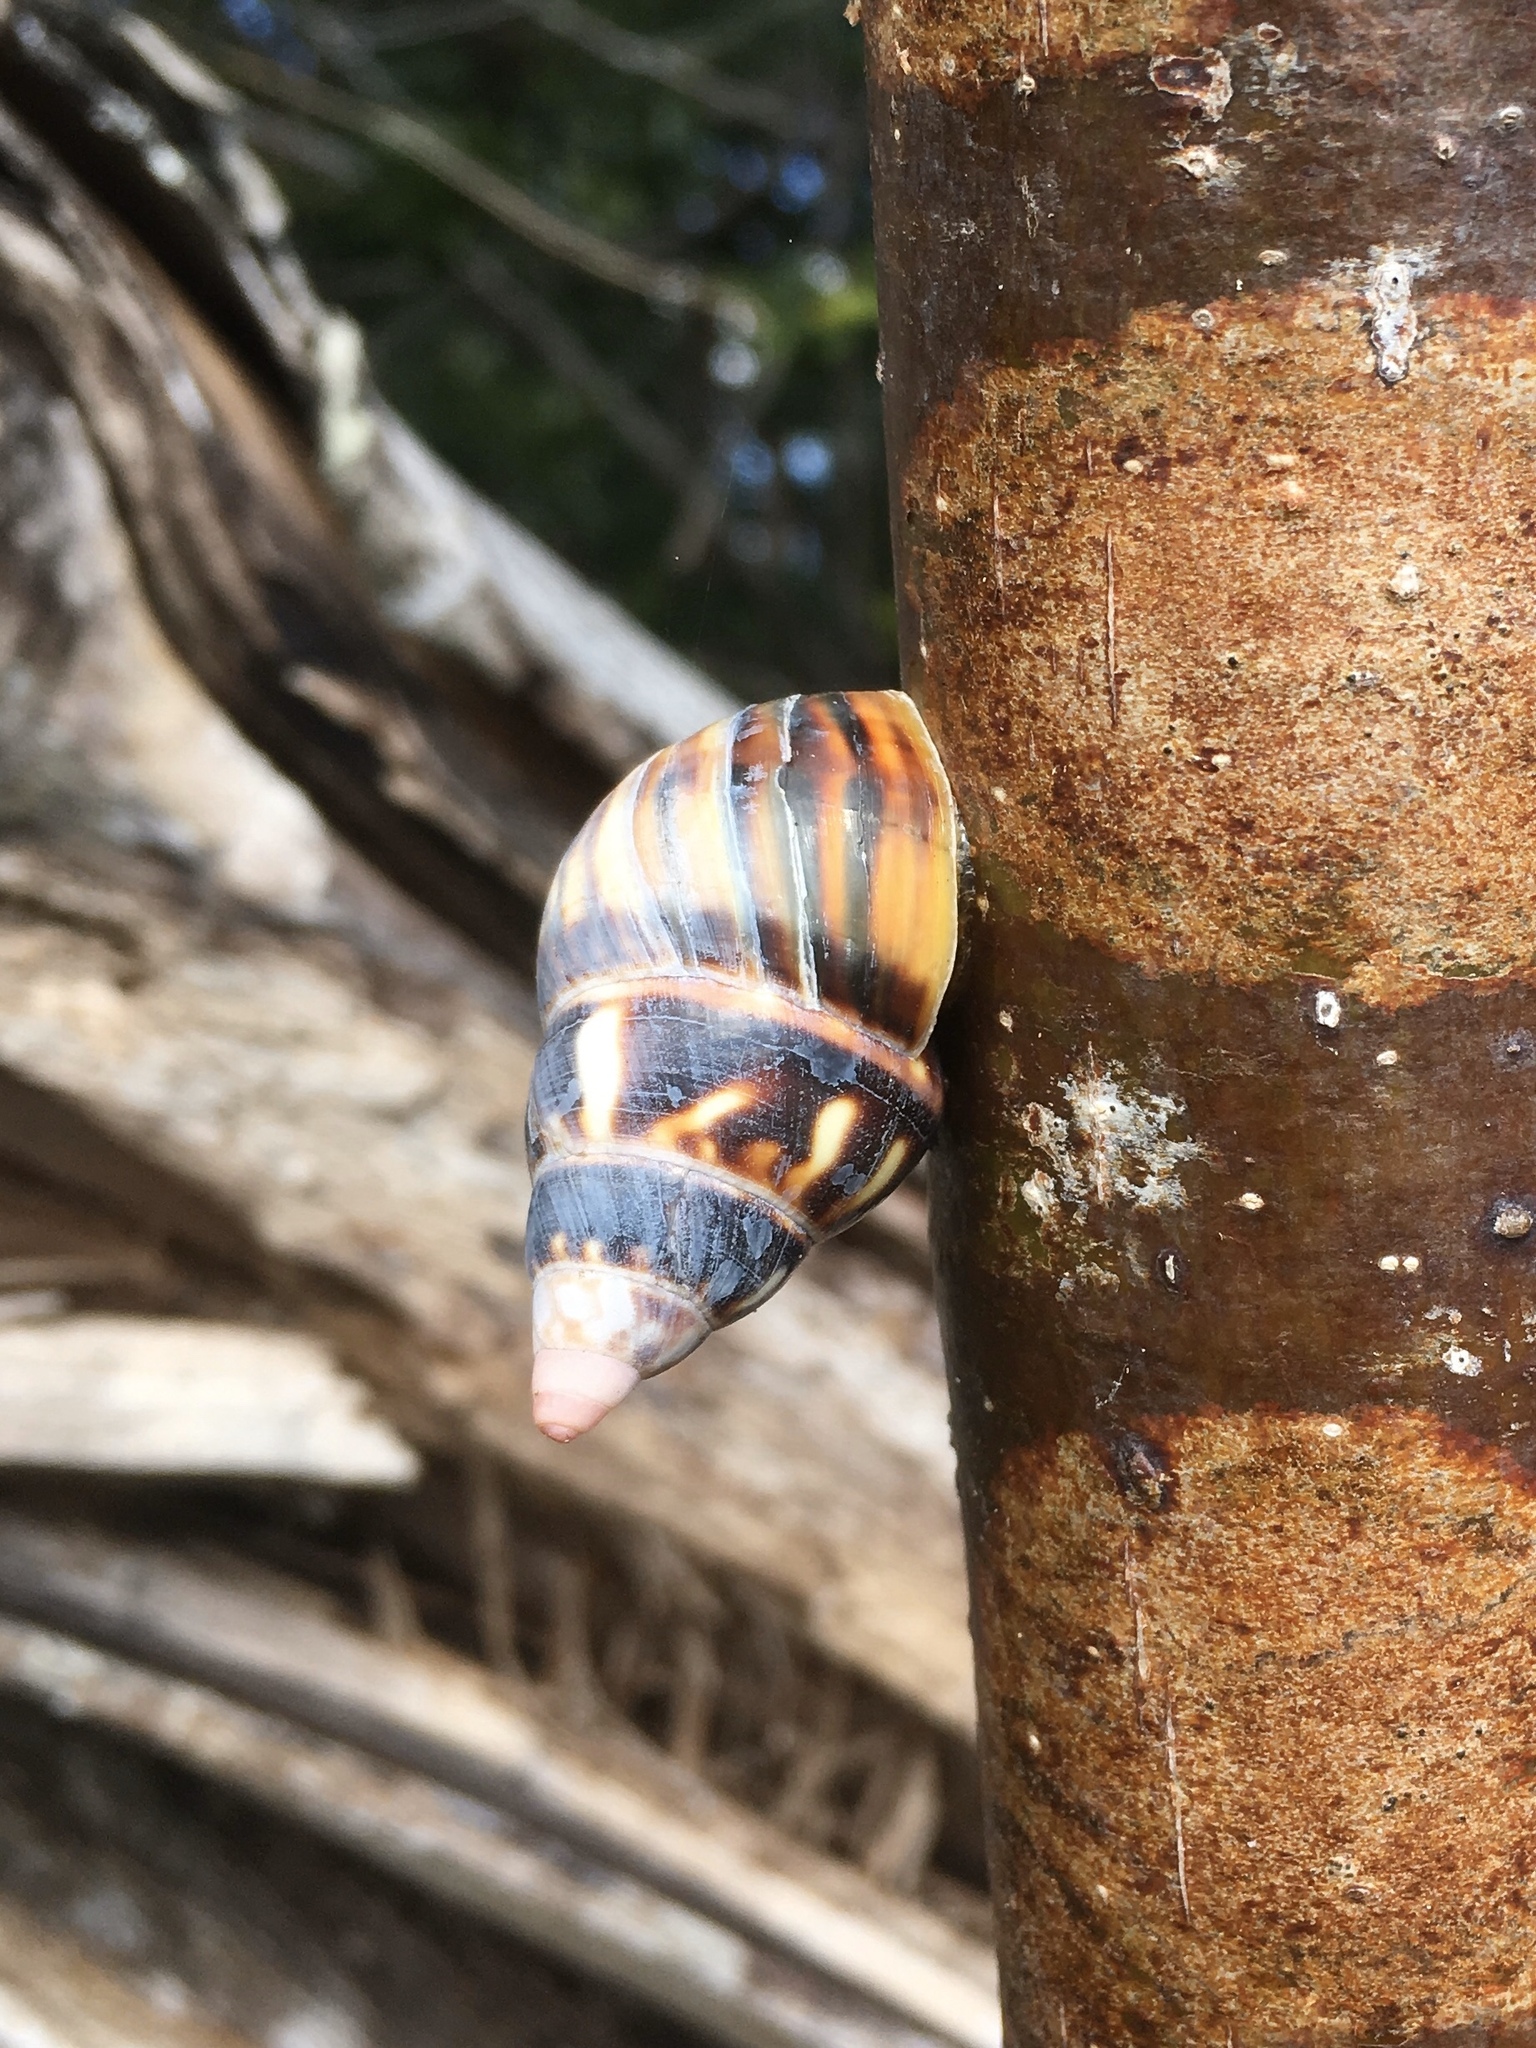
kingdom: Animalia
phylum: Mollusca
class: Gastropoda
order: Stylommatophora
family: Orthalicidae
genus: Liguus
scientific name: Liguus fasciatus
